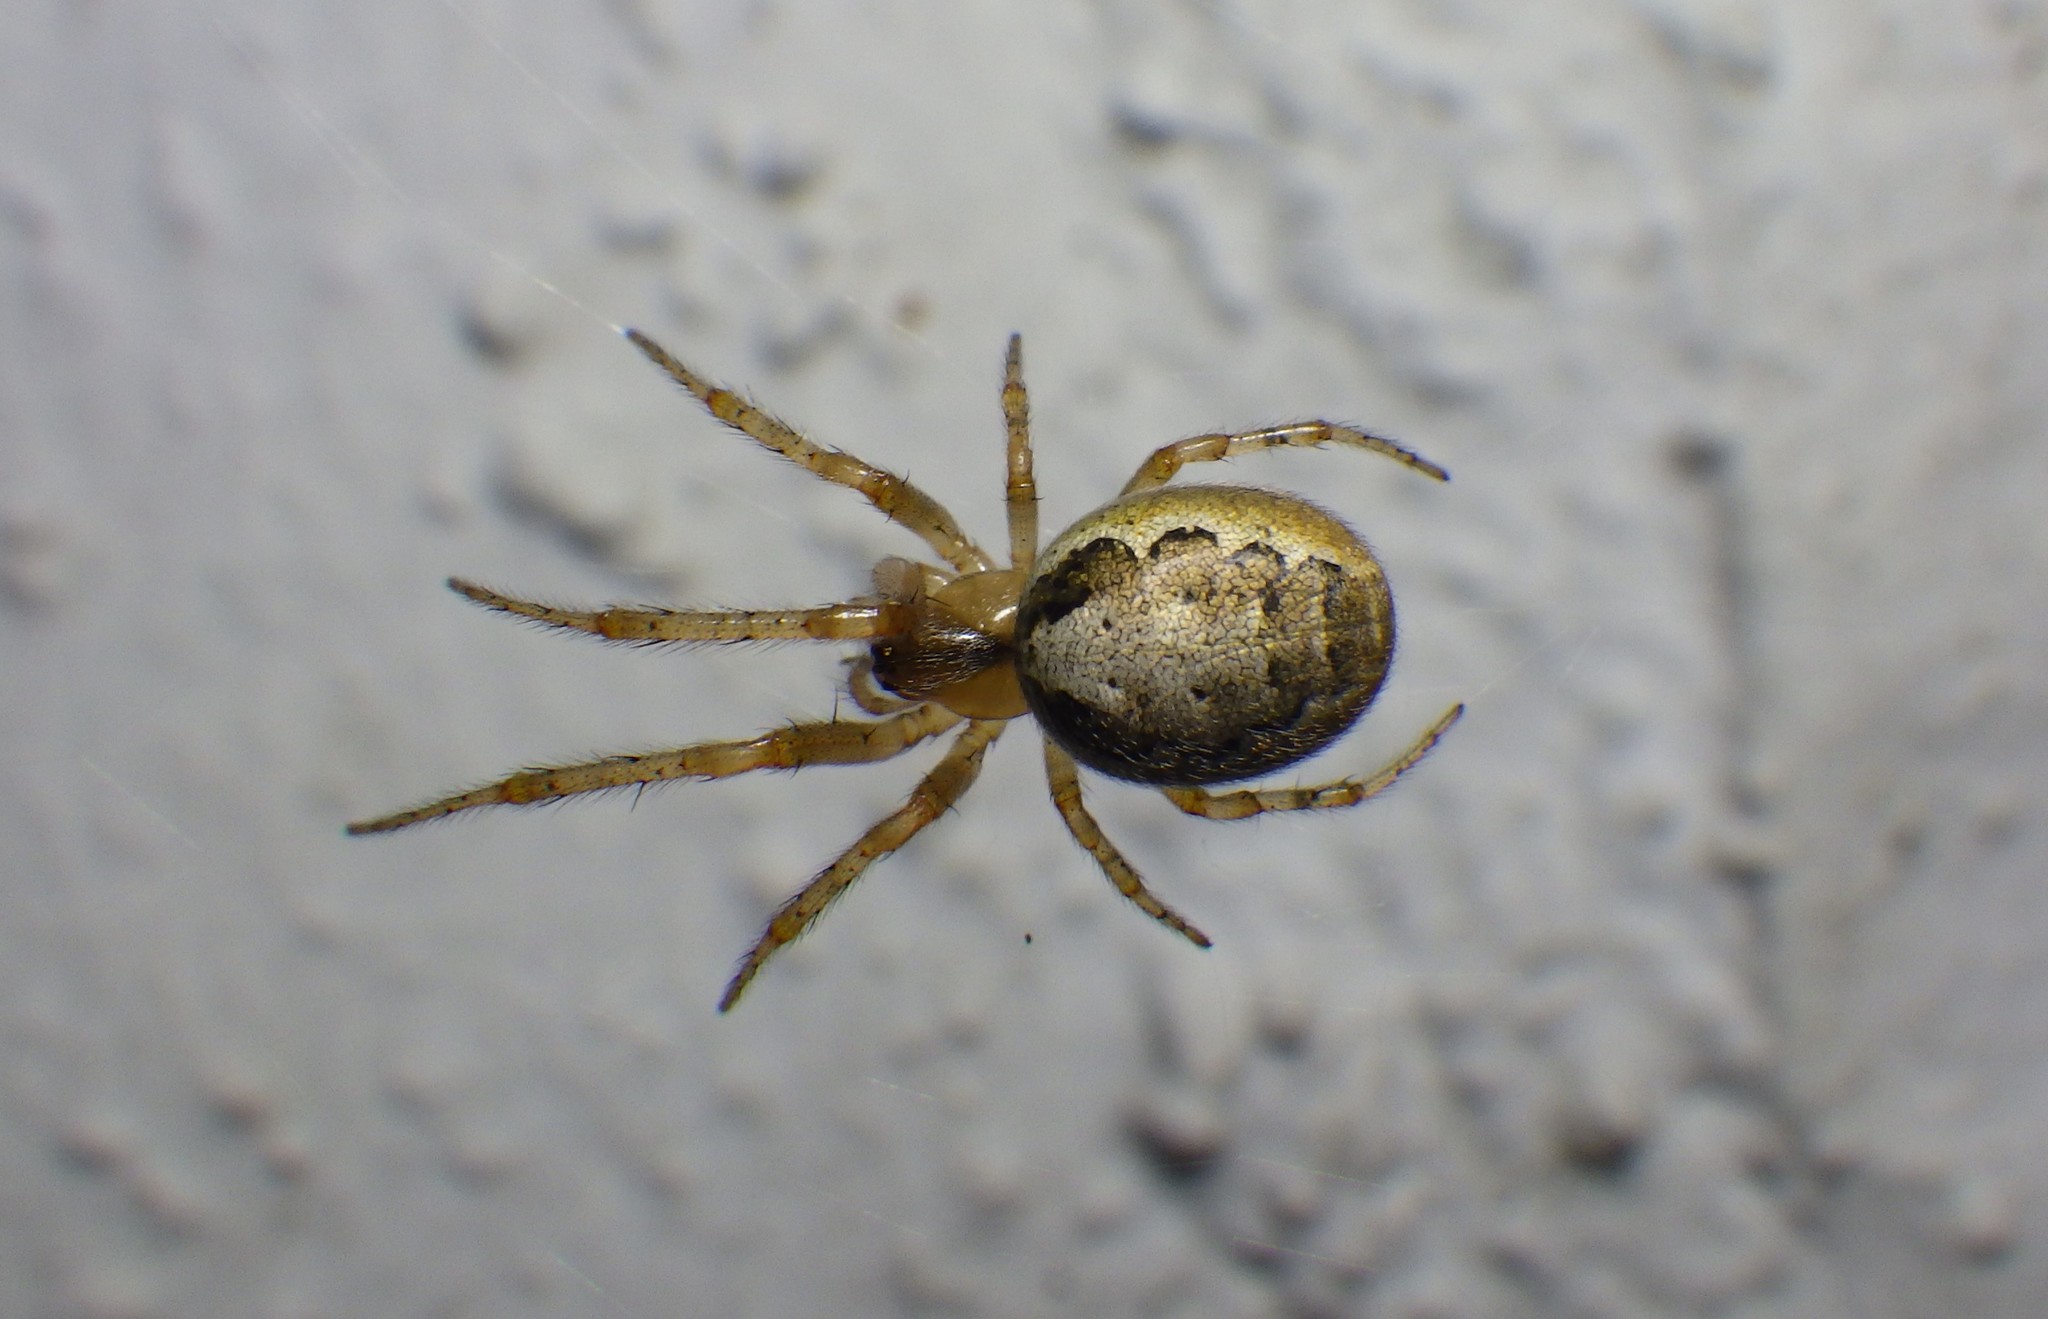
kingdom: Animalia
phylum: Arthropoda
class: Arachnida
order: Araneae
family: Araneidae
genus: Zygiella
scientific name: Zygiella x-notata
